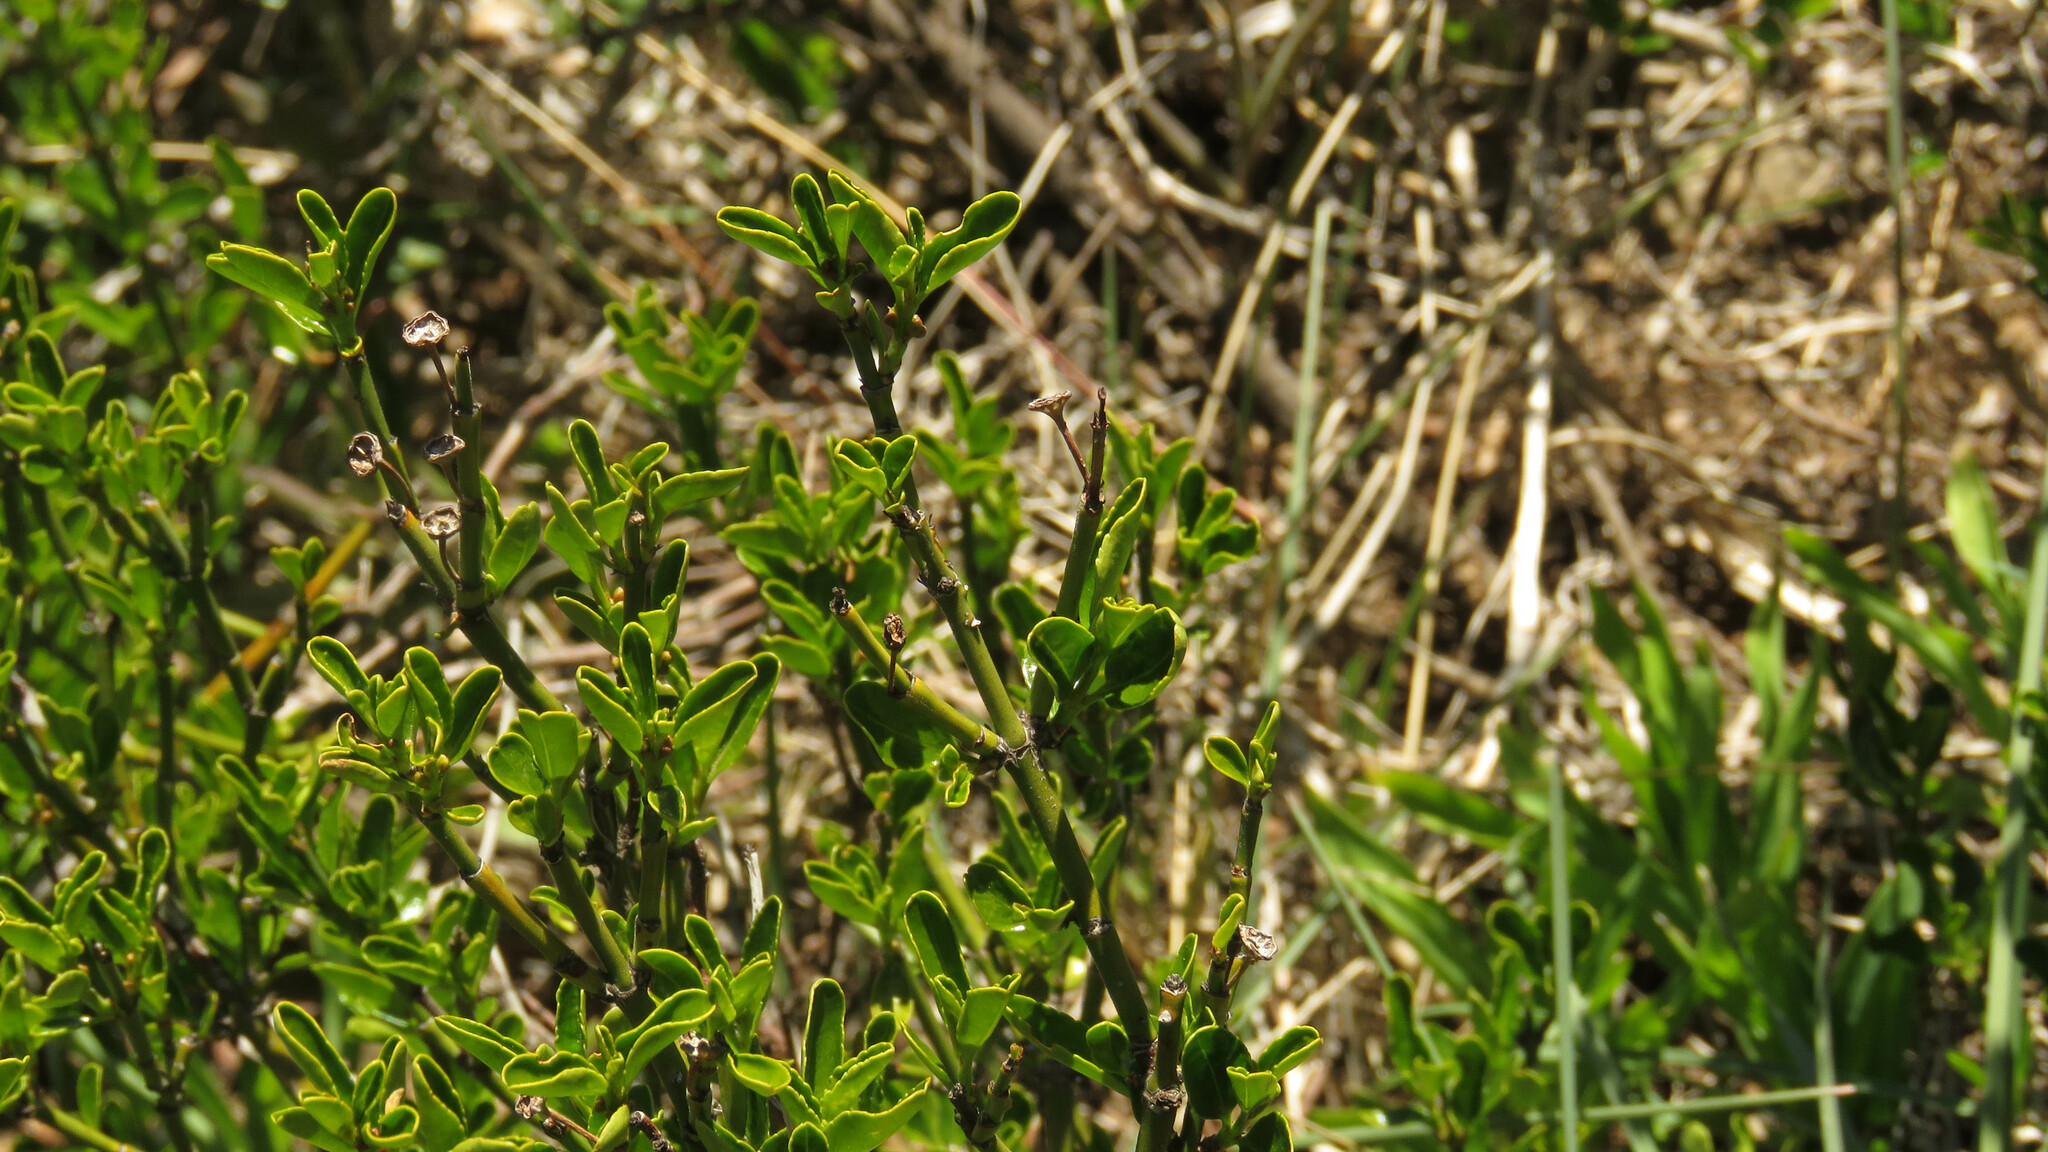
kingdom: Plantae
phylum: Tracheophyta
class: Magnoliopsida
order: Rosales
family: Rhamnaceae
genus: Discaria
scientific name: Discaria chacaye
